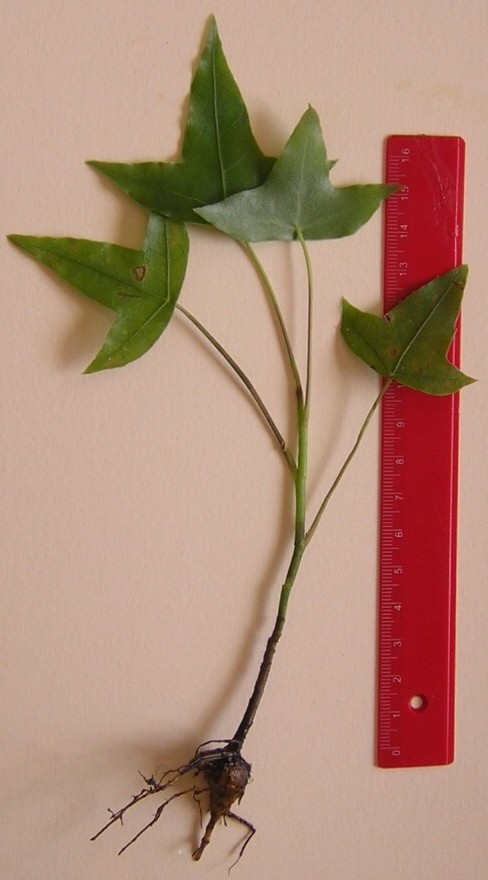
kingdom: Plantae
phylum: Tracheophyta
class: Magnoliopsida
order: Apiales
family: Araliaceae
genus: Oreopanax
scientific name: Oreopanax sanderianus
